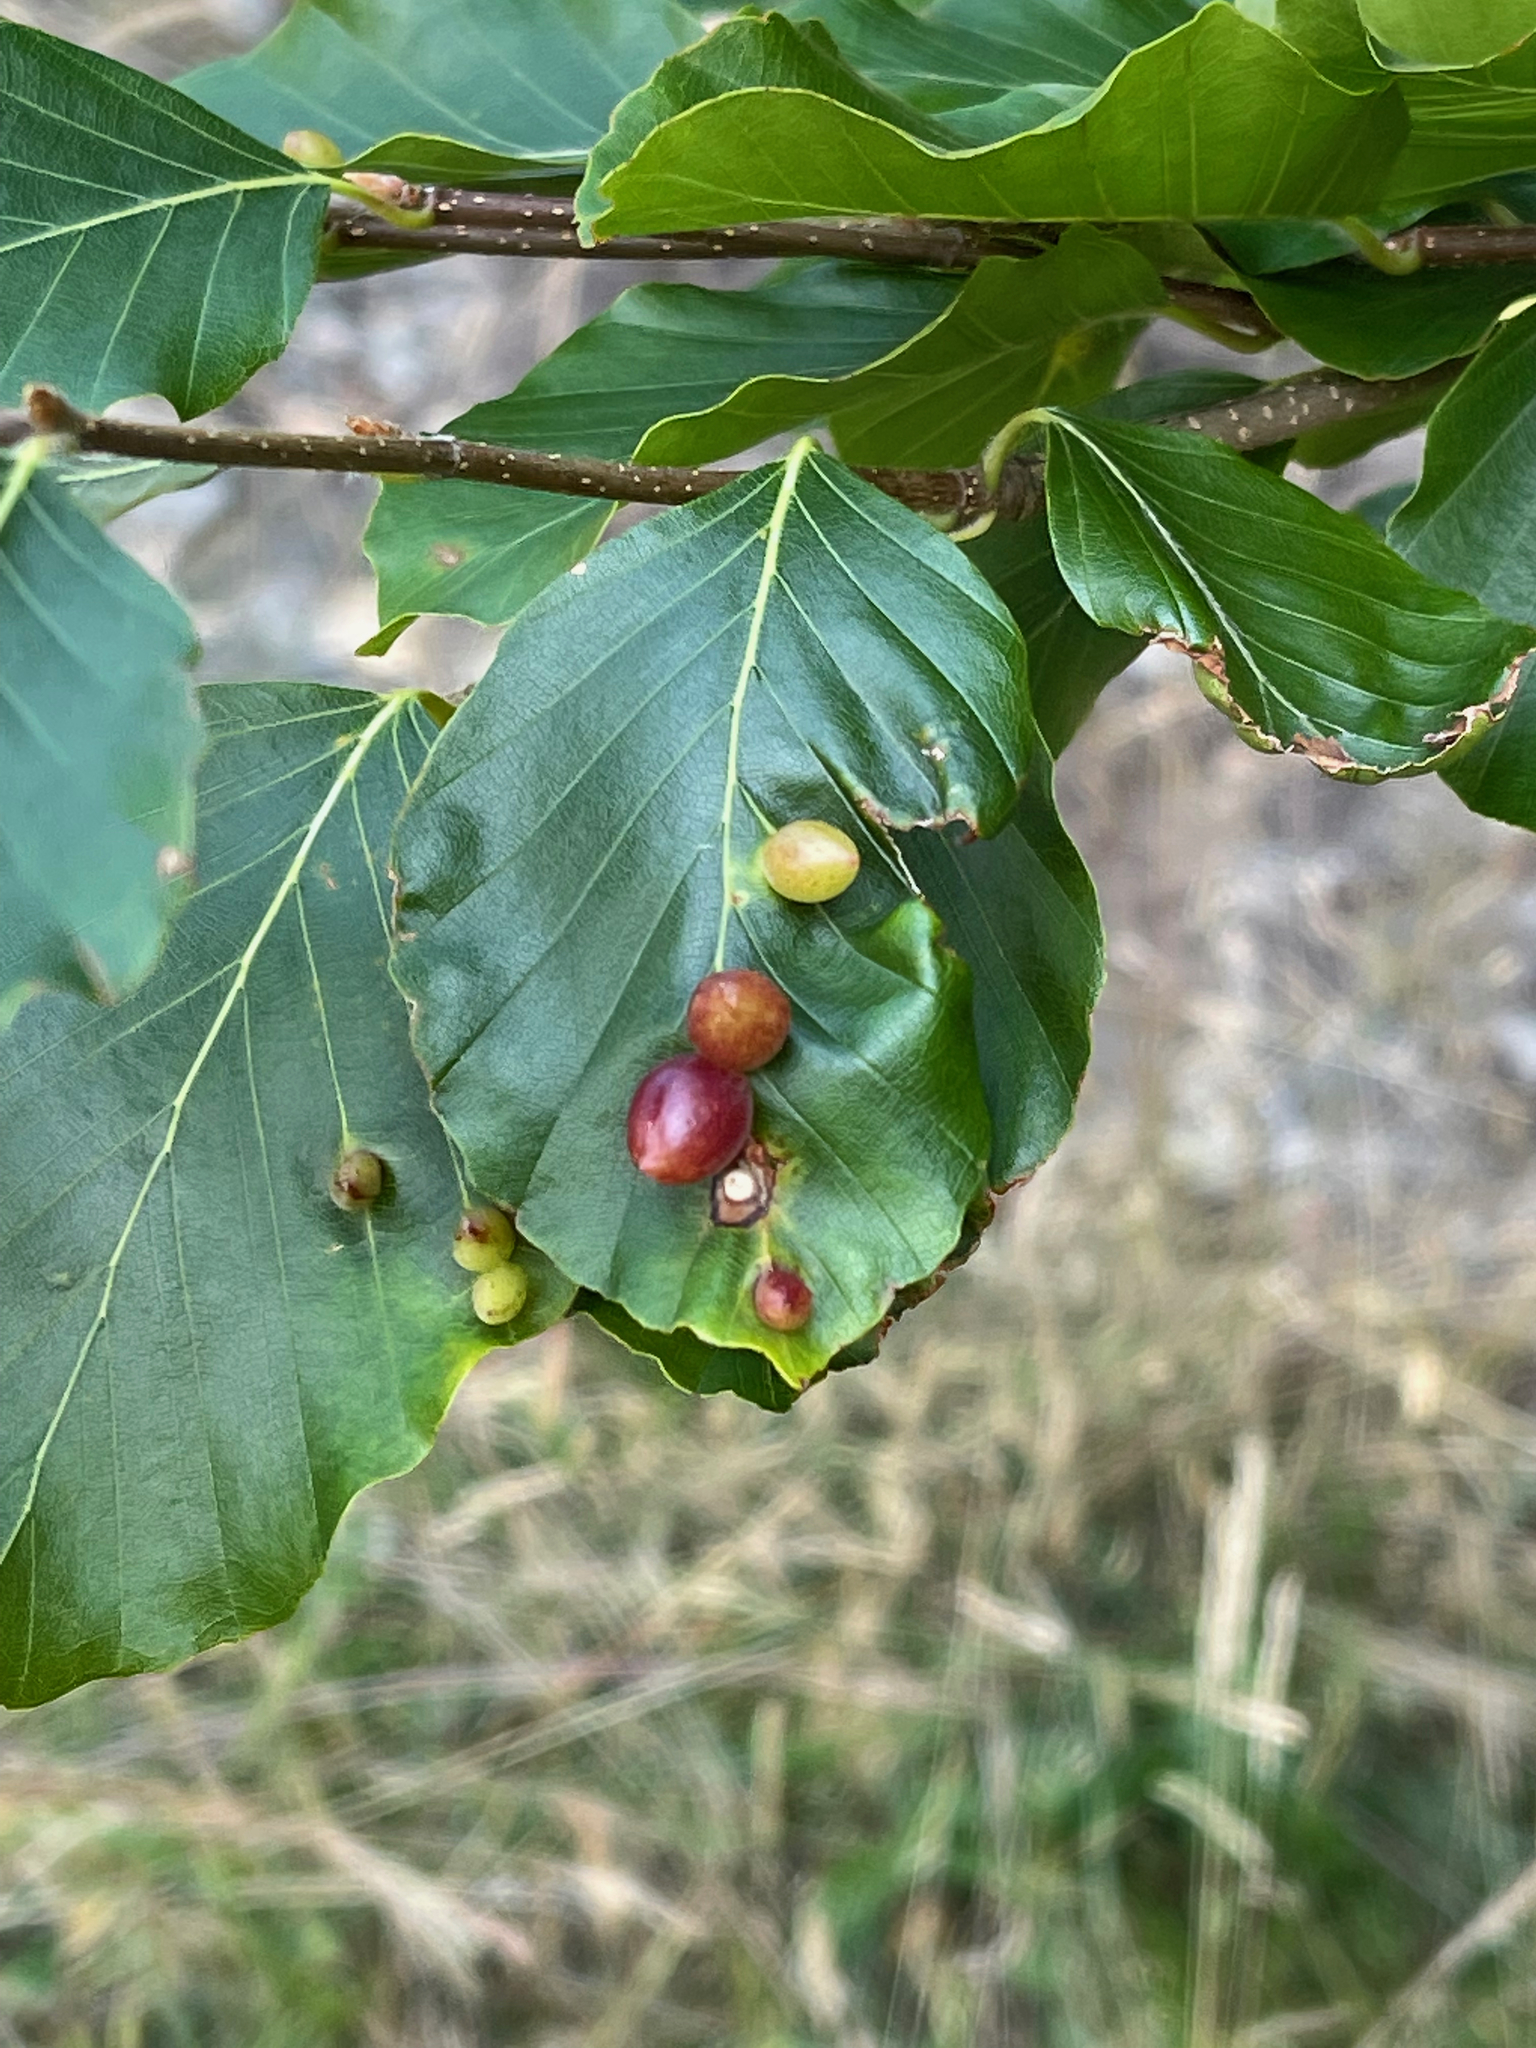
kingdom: Animalia
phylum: Arthropoda
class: Insecta
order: Diptera
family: Cecidomyiidae
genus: Mikiola
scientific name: Mikiola fagi
